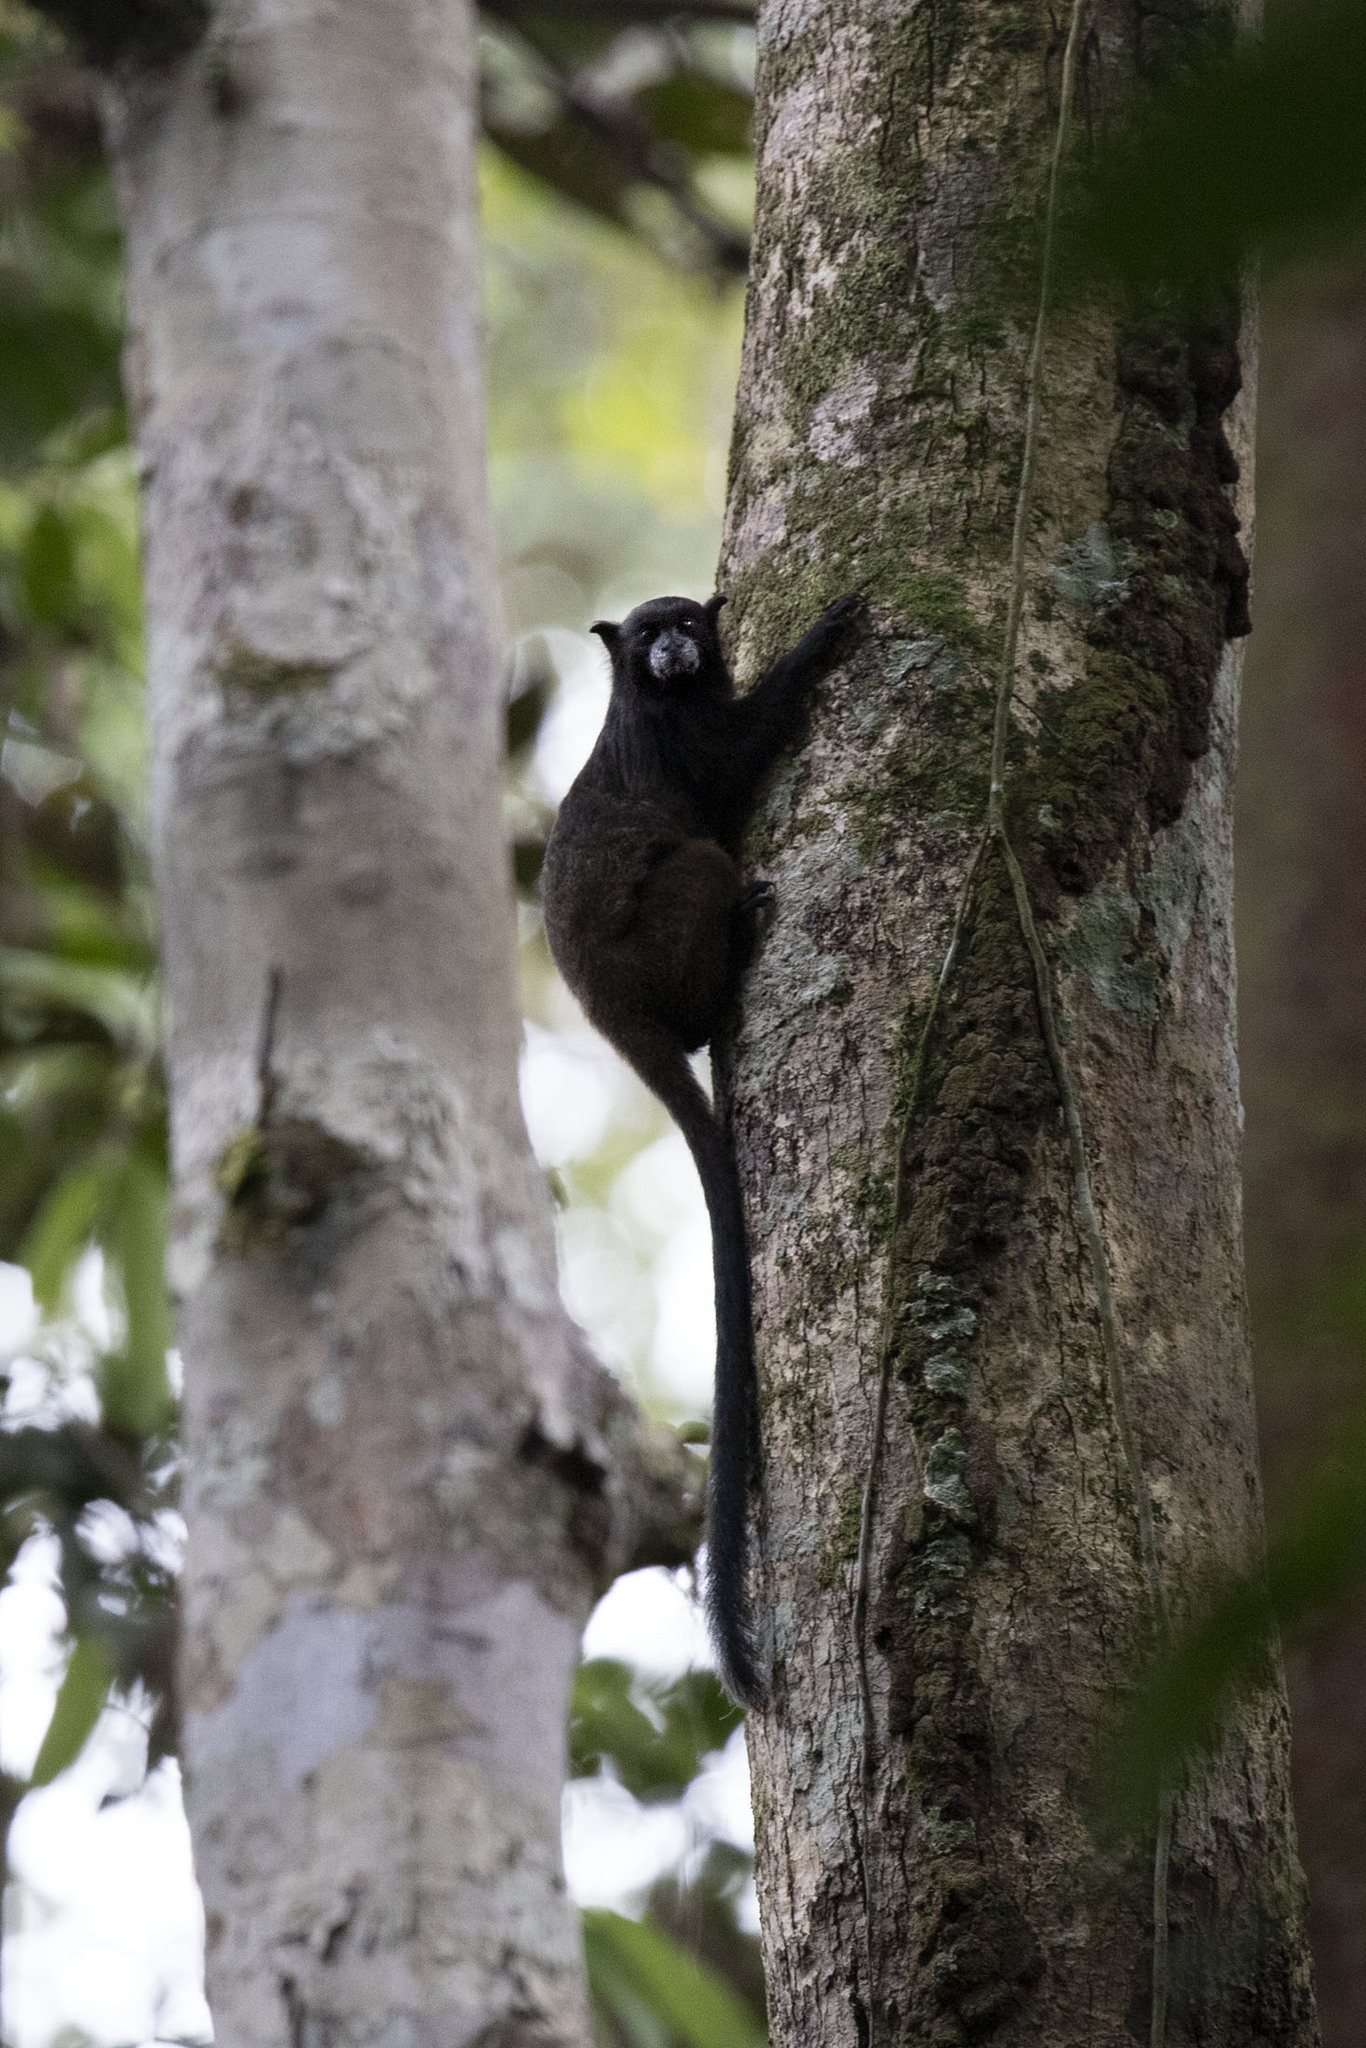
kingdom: Animalia
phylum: Chordata
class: Mammalia
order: Primates
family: Callitrichidae
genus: Leontocebus
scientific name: Leontocebus nigricollis
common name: Black-mantled tamarin
